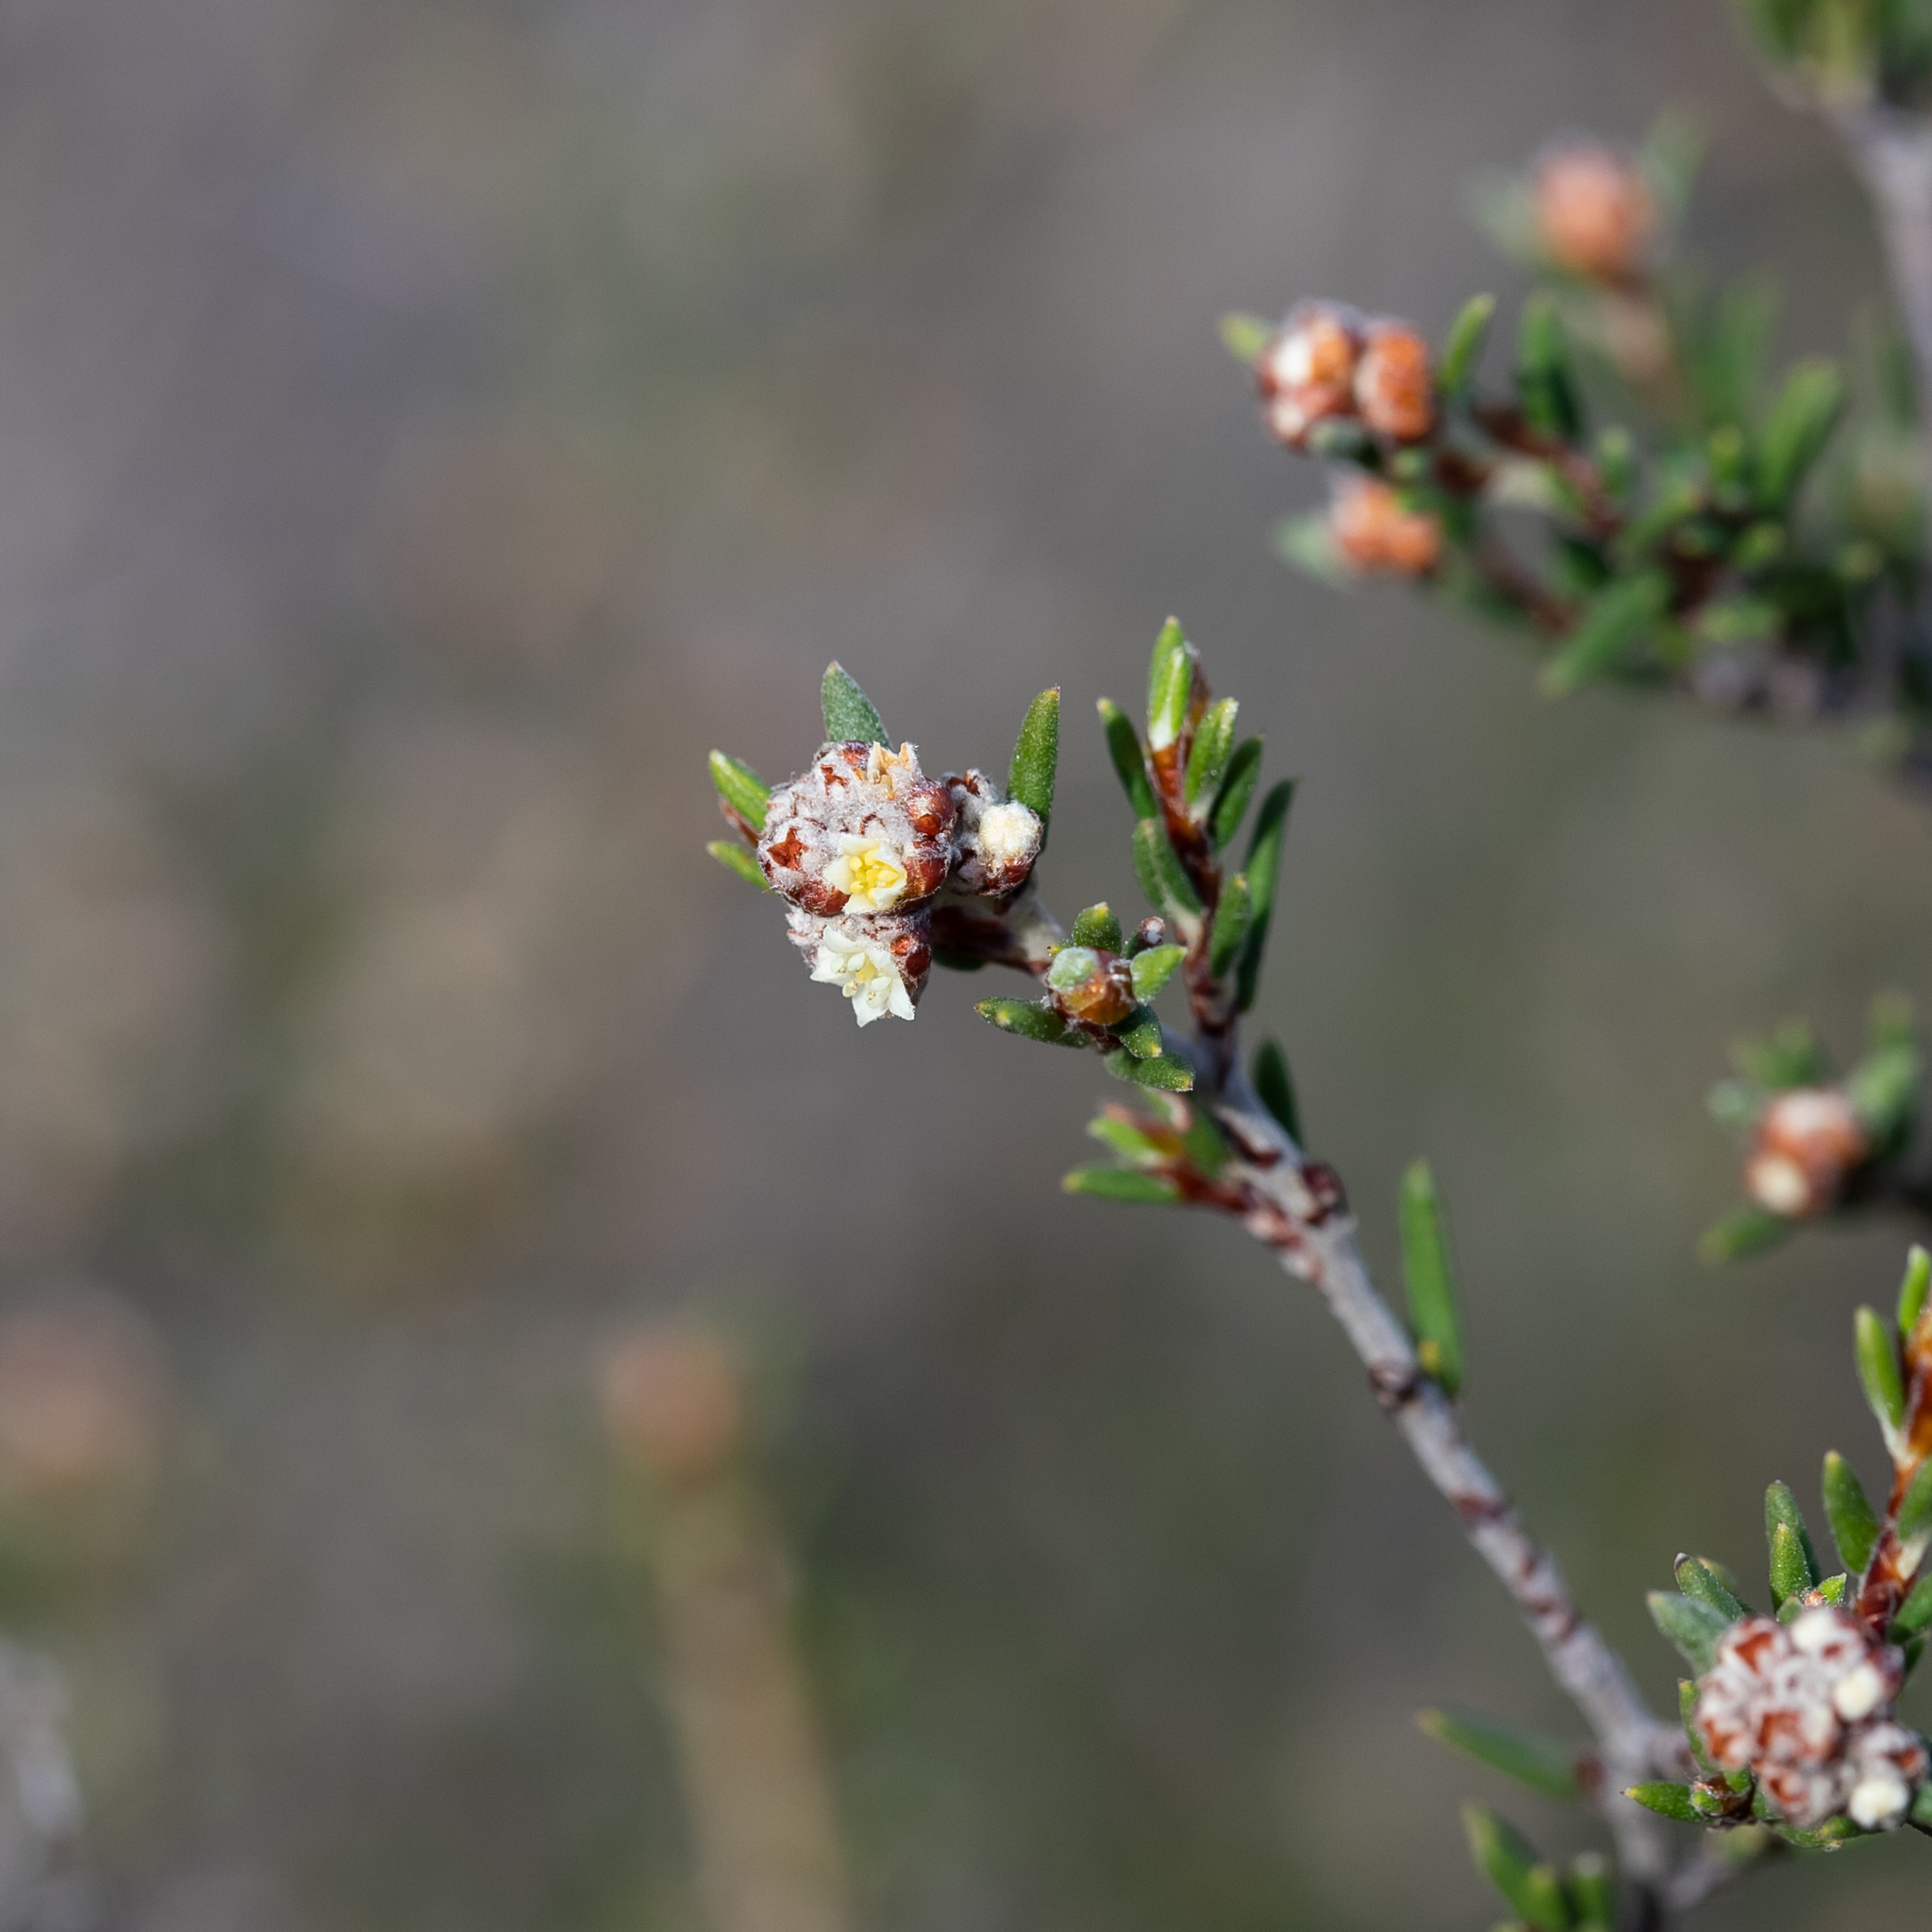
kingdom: Plantae
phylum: Tracheophyta
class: Magnoliopsida
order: Rosales
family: Rhamnaceae
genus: Spyridium
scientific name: Spyridium eriocephalum
